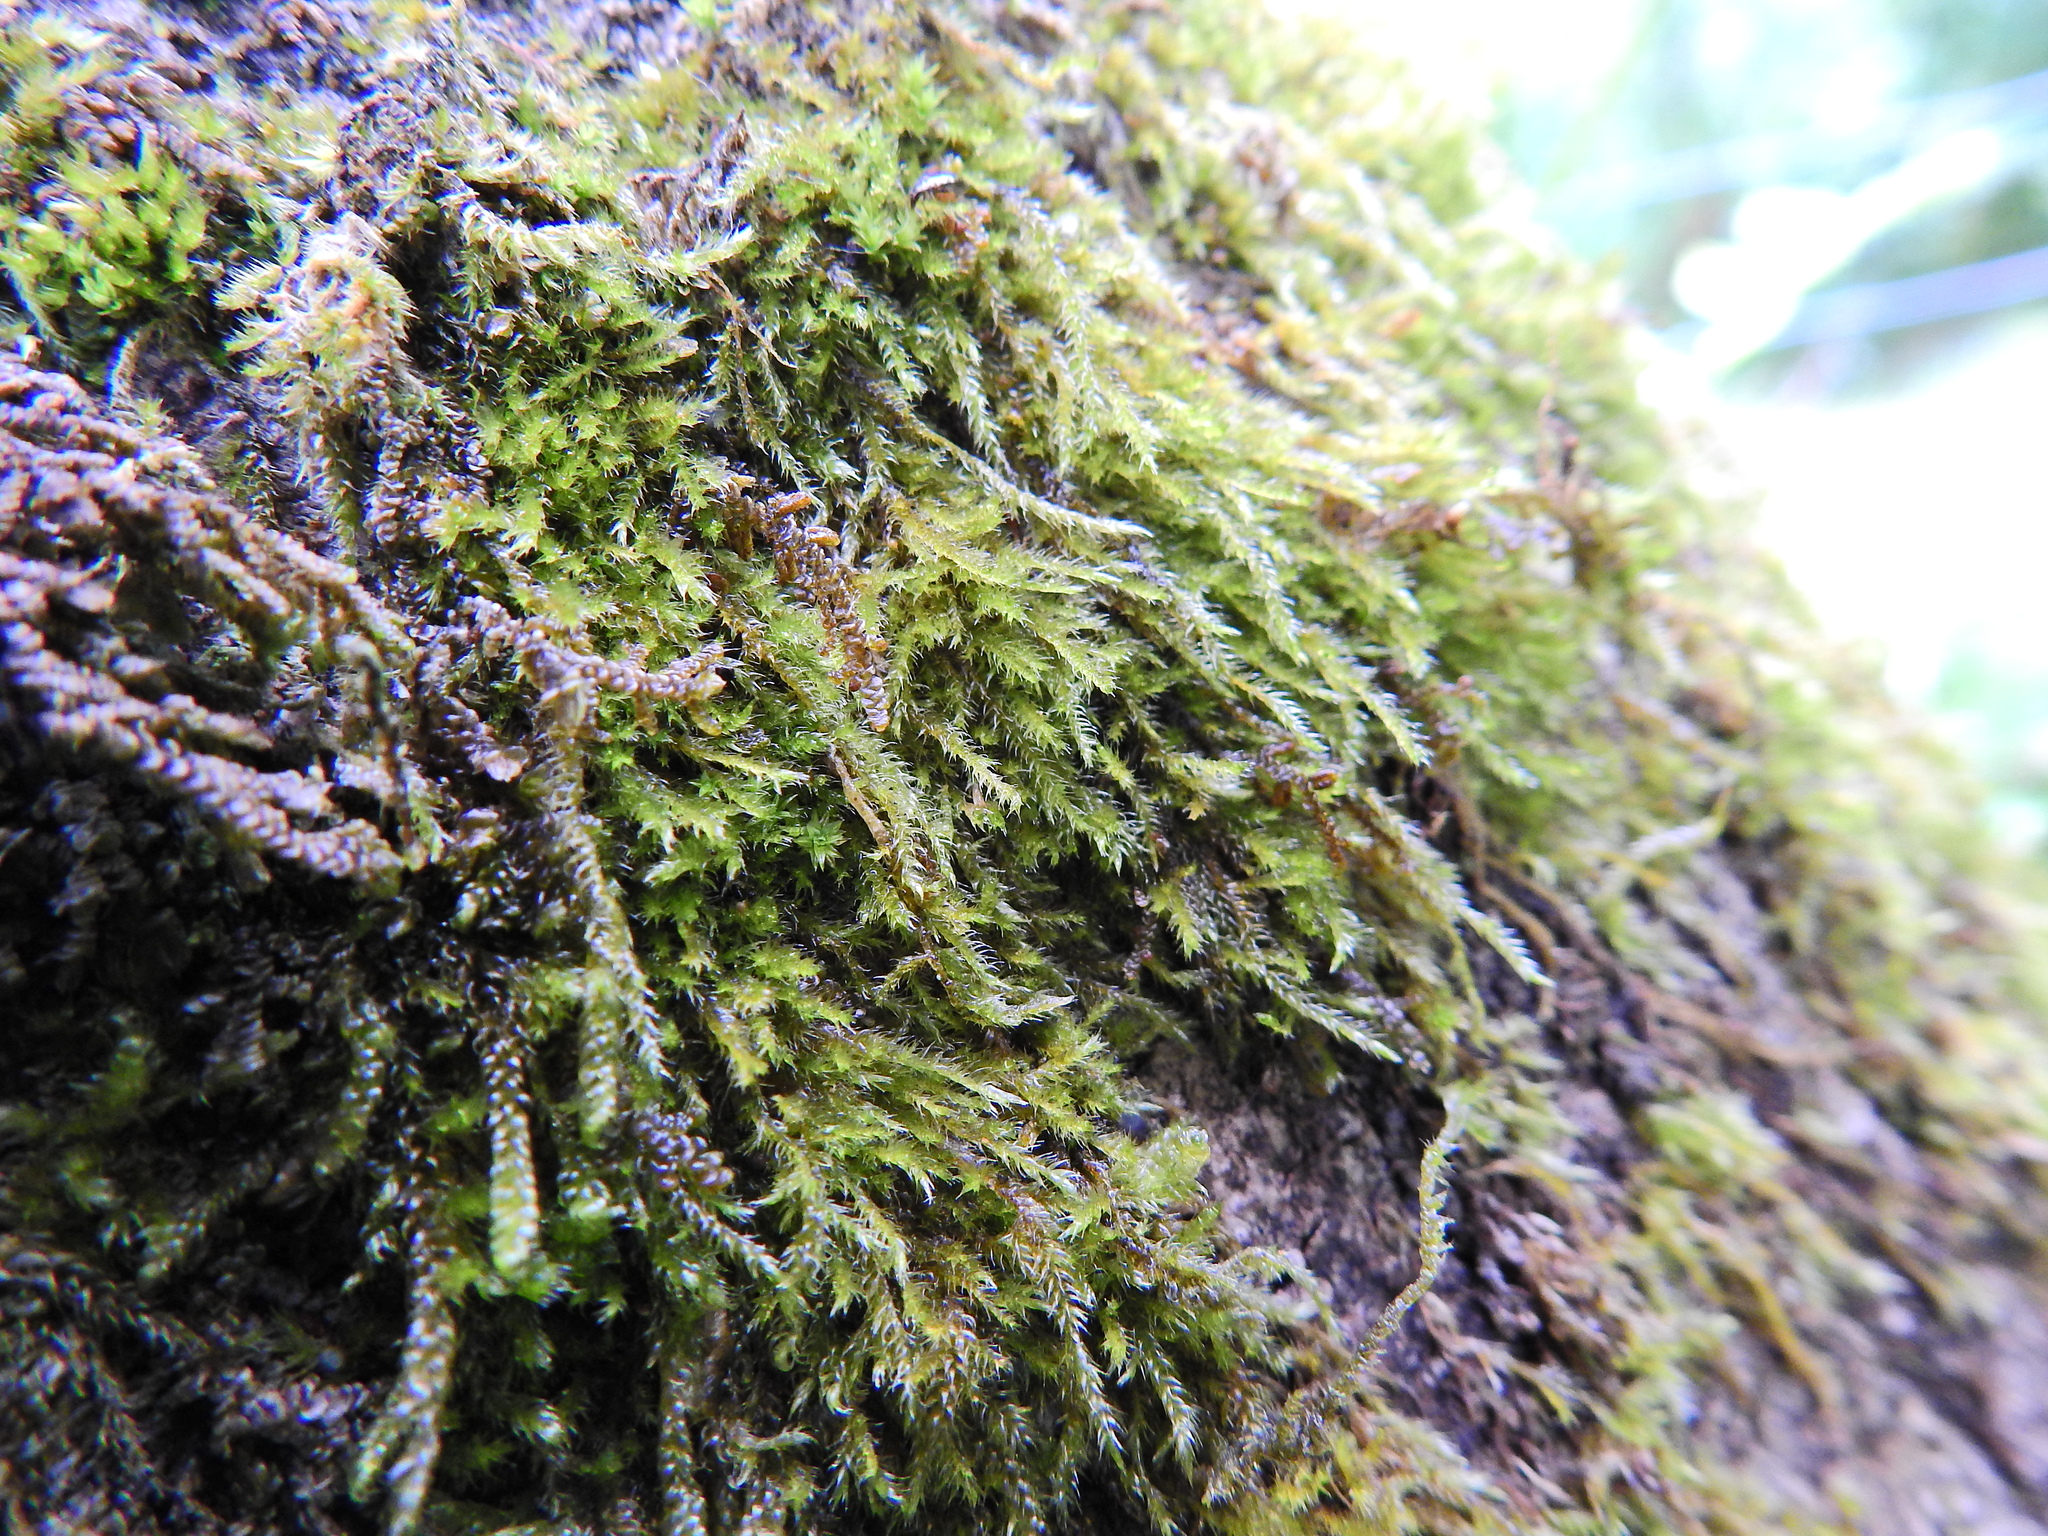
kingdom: Plantae
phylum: Bryophyta
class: Bryopsida
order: Hypnales
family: Cryphaeaceae
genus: Cryphaea
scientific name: Cryphaea heteromalla
